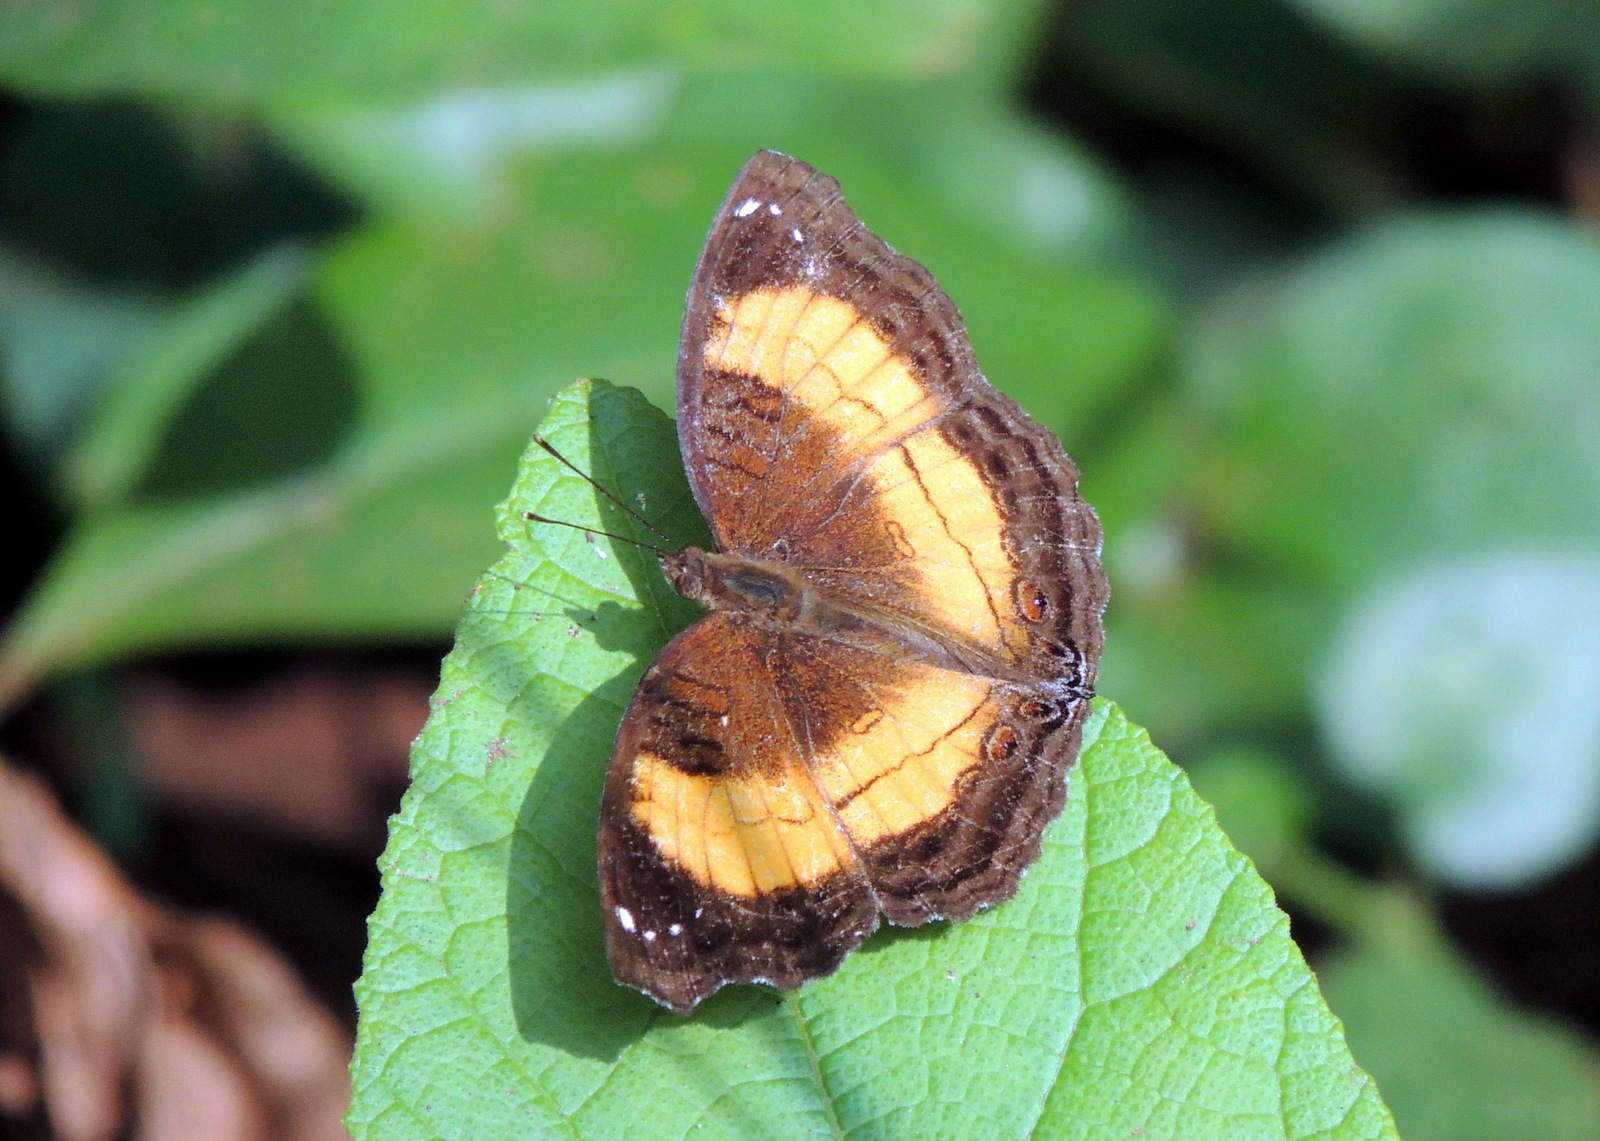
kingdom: Animalia
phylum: Arthropoda
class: Insecta
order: Lepidoptera
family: Nymphalidae
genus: Junonia
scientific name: Junonia terea
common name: Soldier pansy
